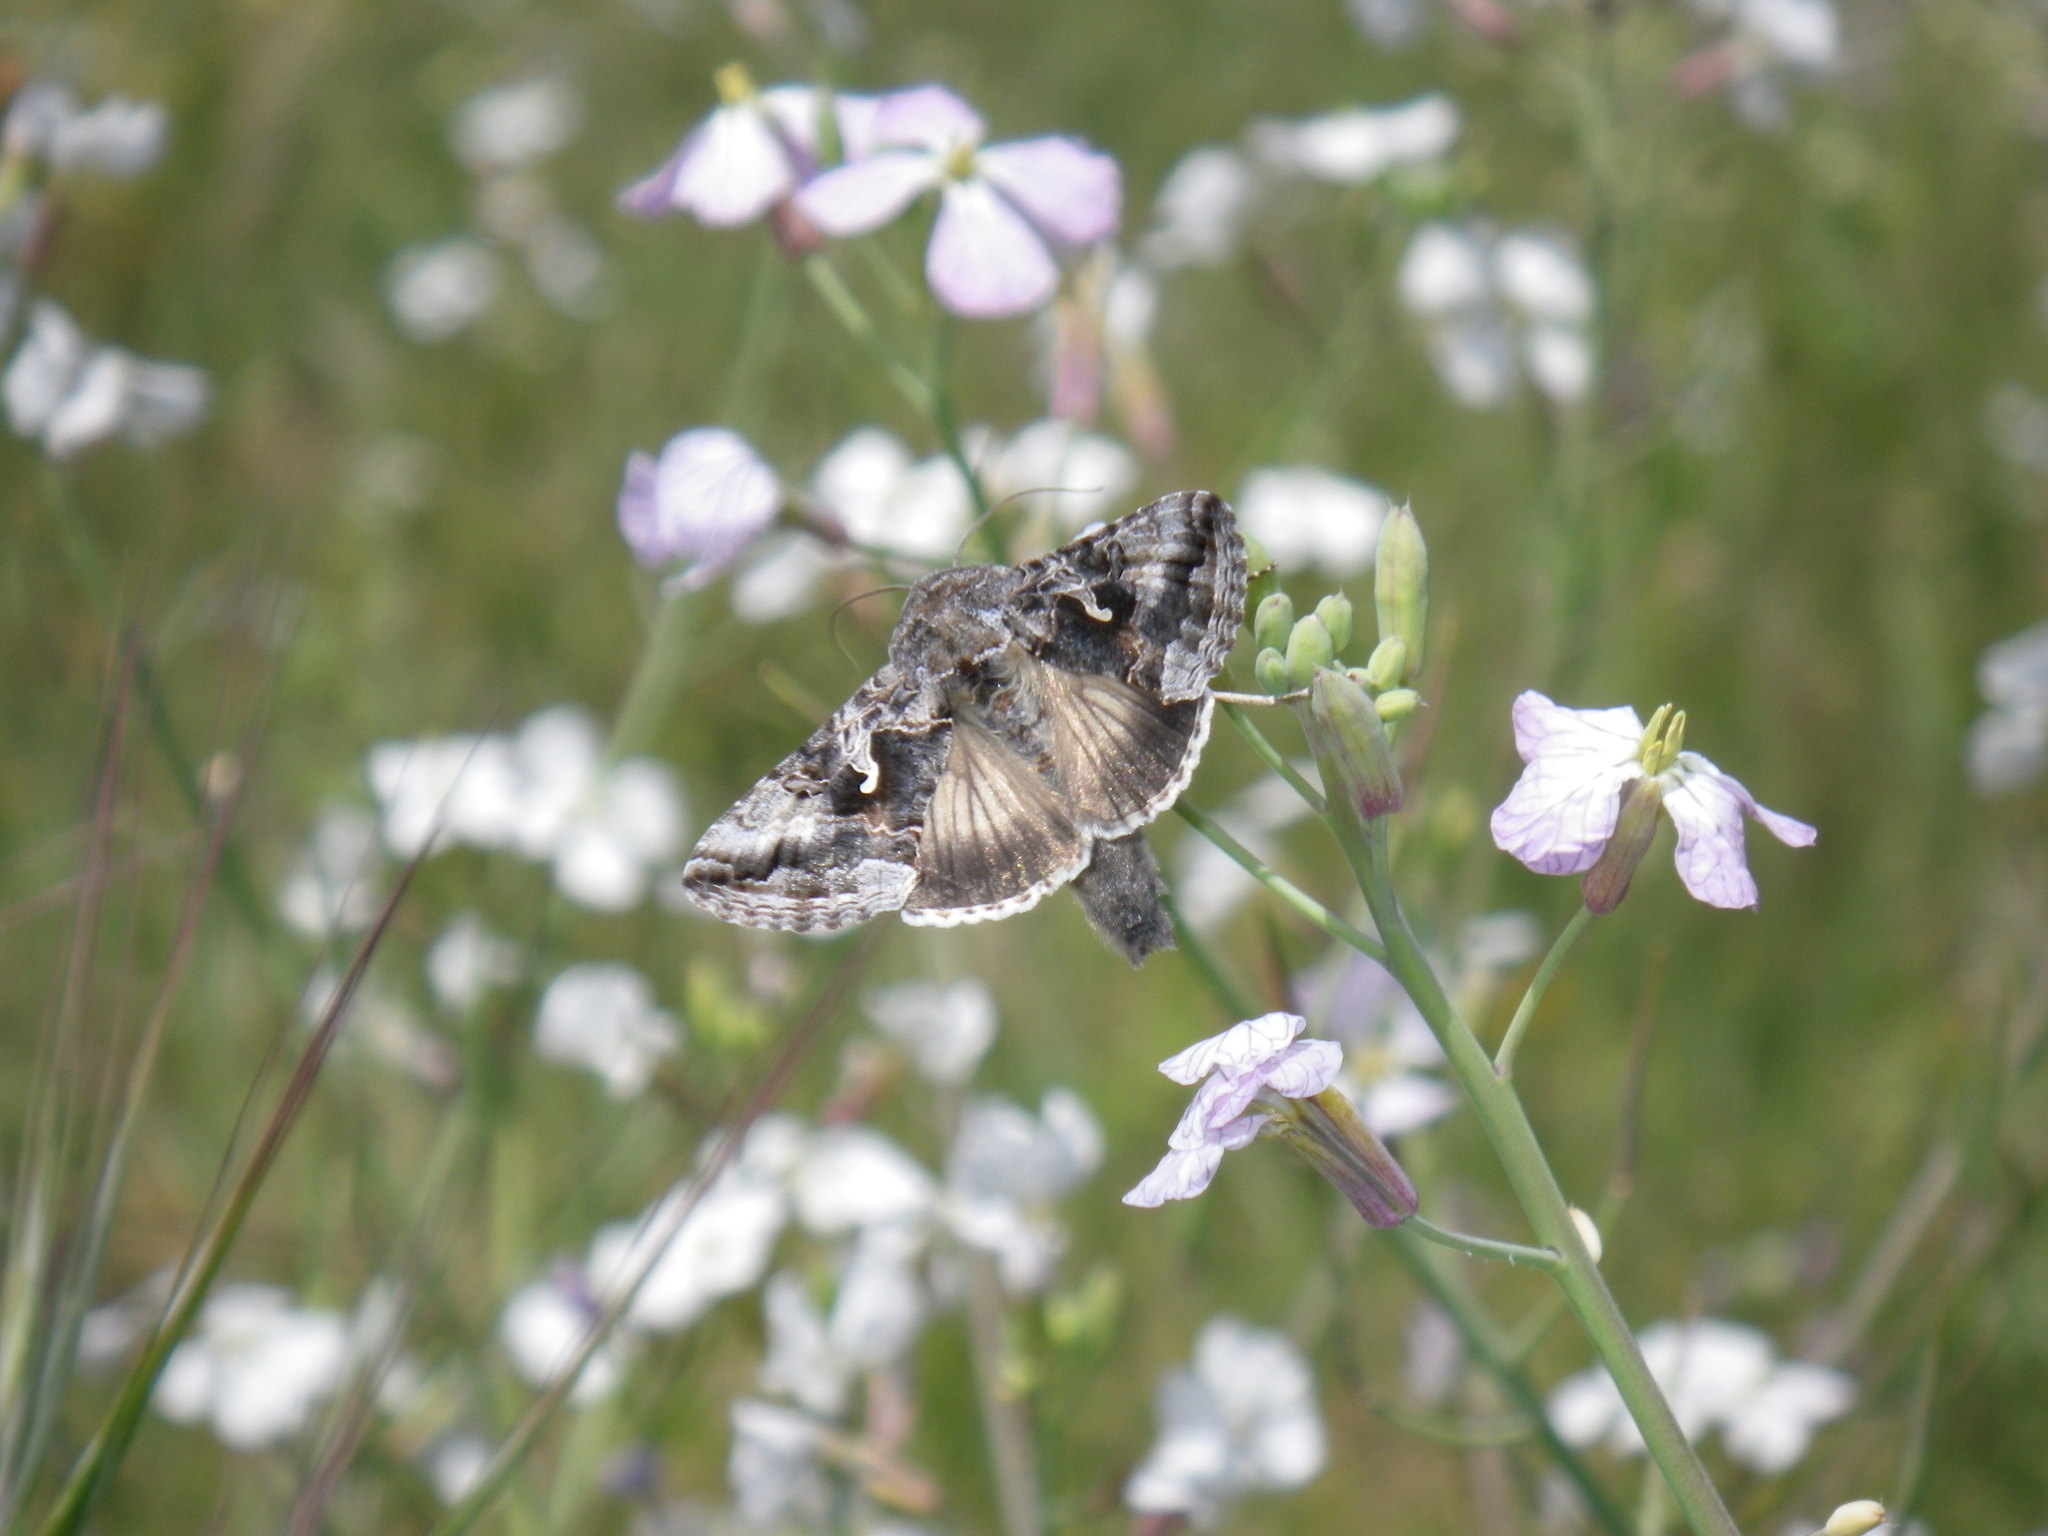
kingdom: Animalia
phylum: Arthropoda
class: Insecta
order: Lepidoptera
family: Noctuidae
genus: Autographa
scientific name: Autographa californica
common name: Alfalfa looper
